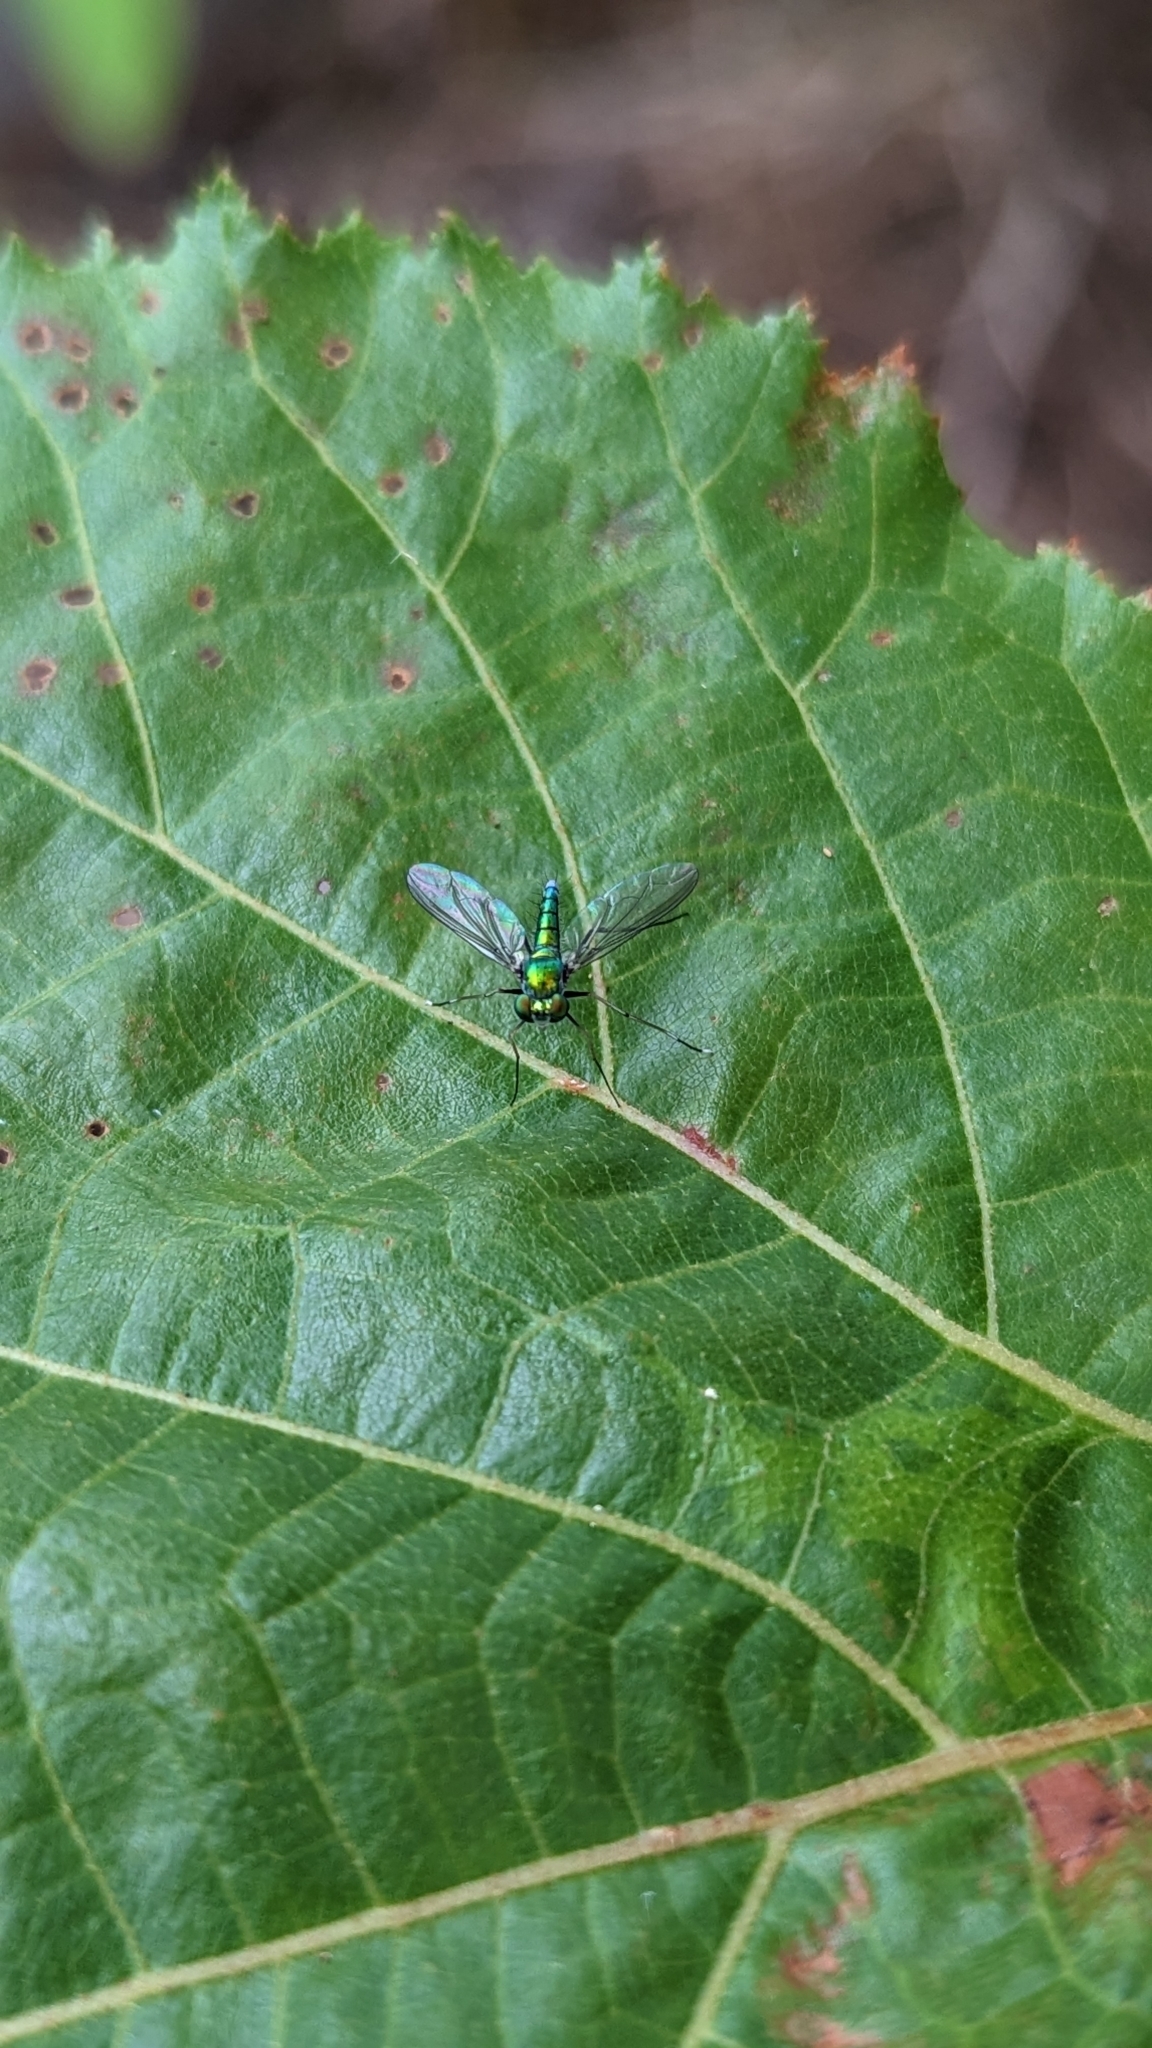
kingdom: Animalia
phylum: Arthropoda
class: Insecta
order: Diptera
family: Dolichopodidae
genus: Chrysosoma
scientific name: Chrysosoma leucopogon
